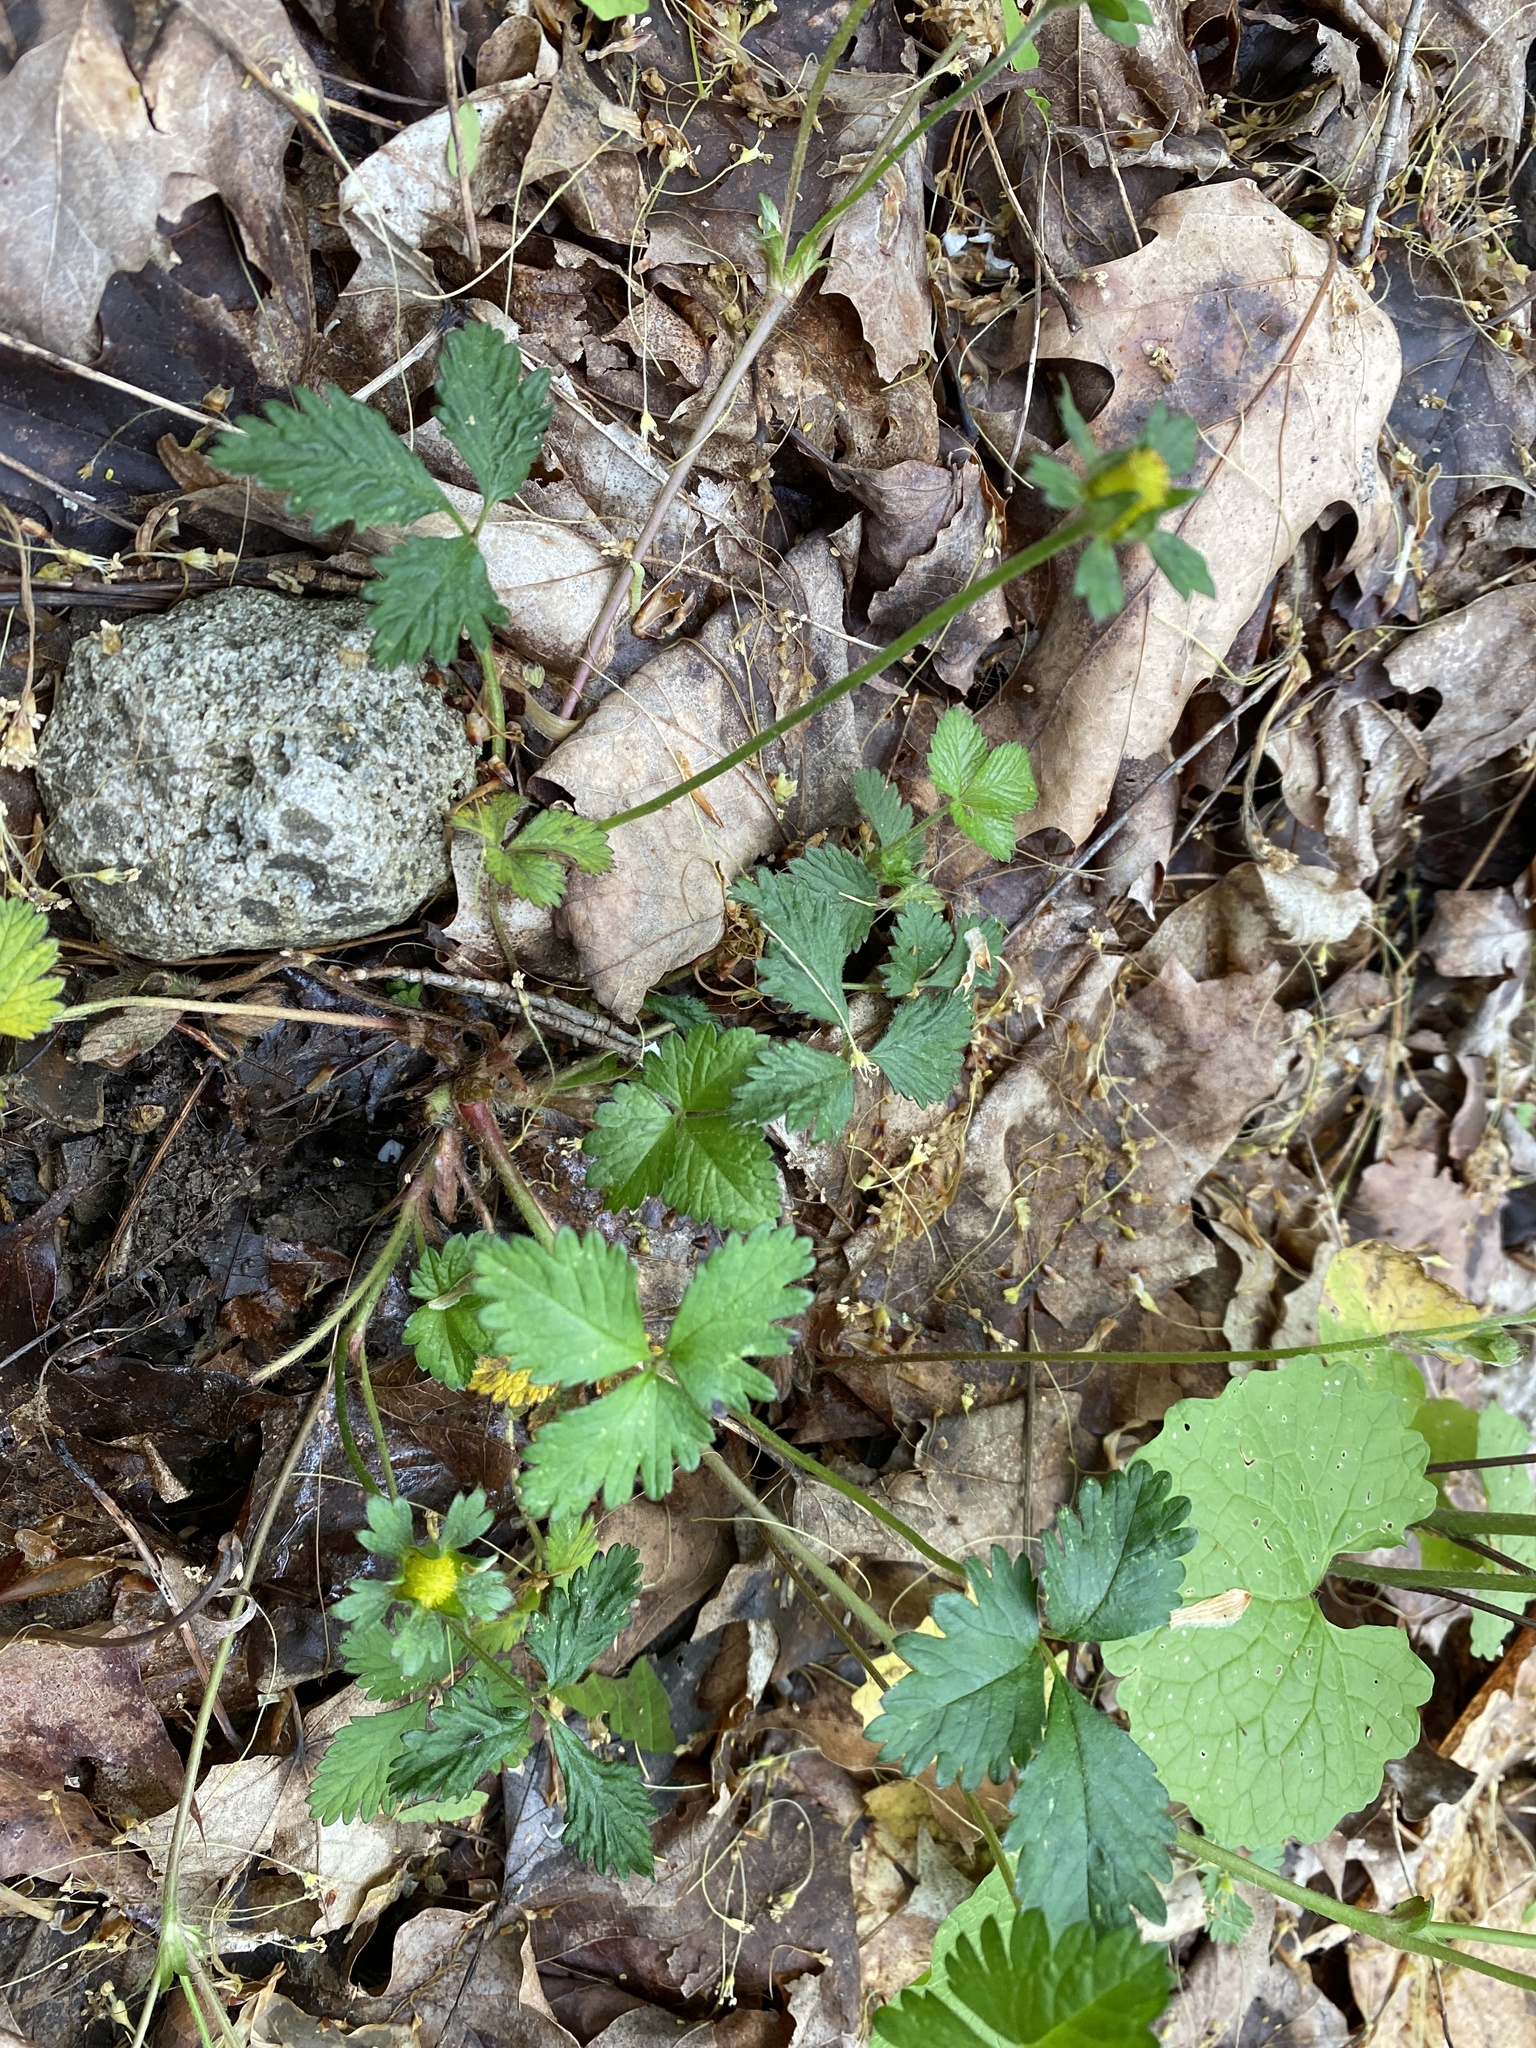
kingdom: Plantae
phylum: Tracheophyta
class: Magnoliopsida
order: Rosales
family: Rosaceae
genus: Potentilla
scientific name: Potentilla indica
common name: Yellow-flowered strawberry
